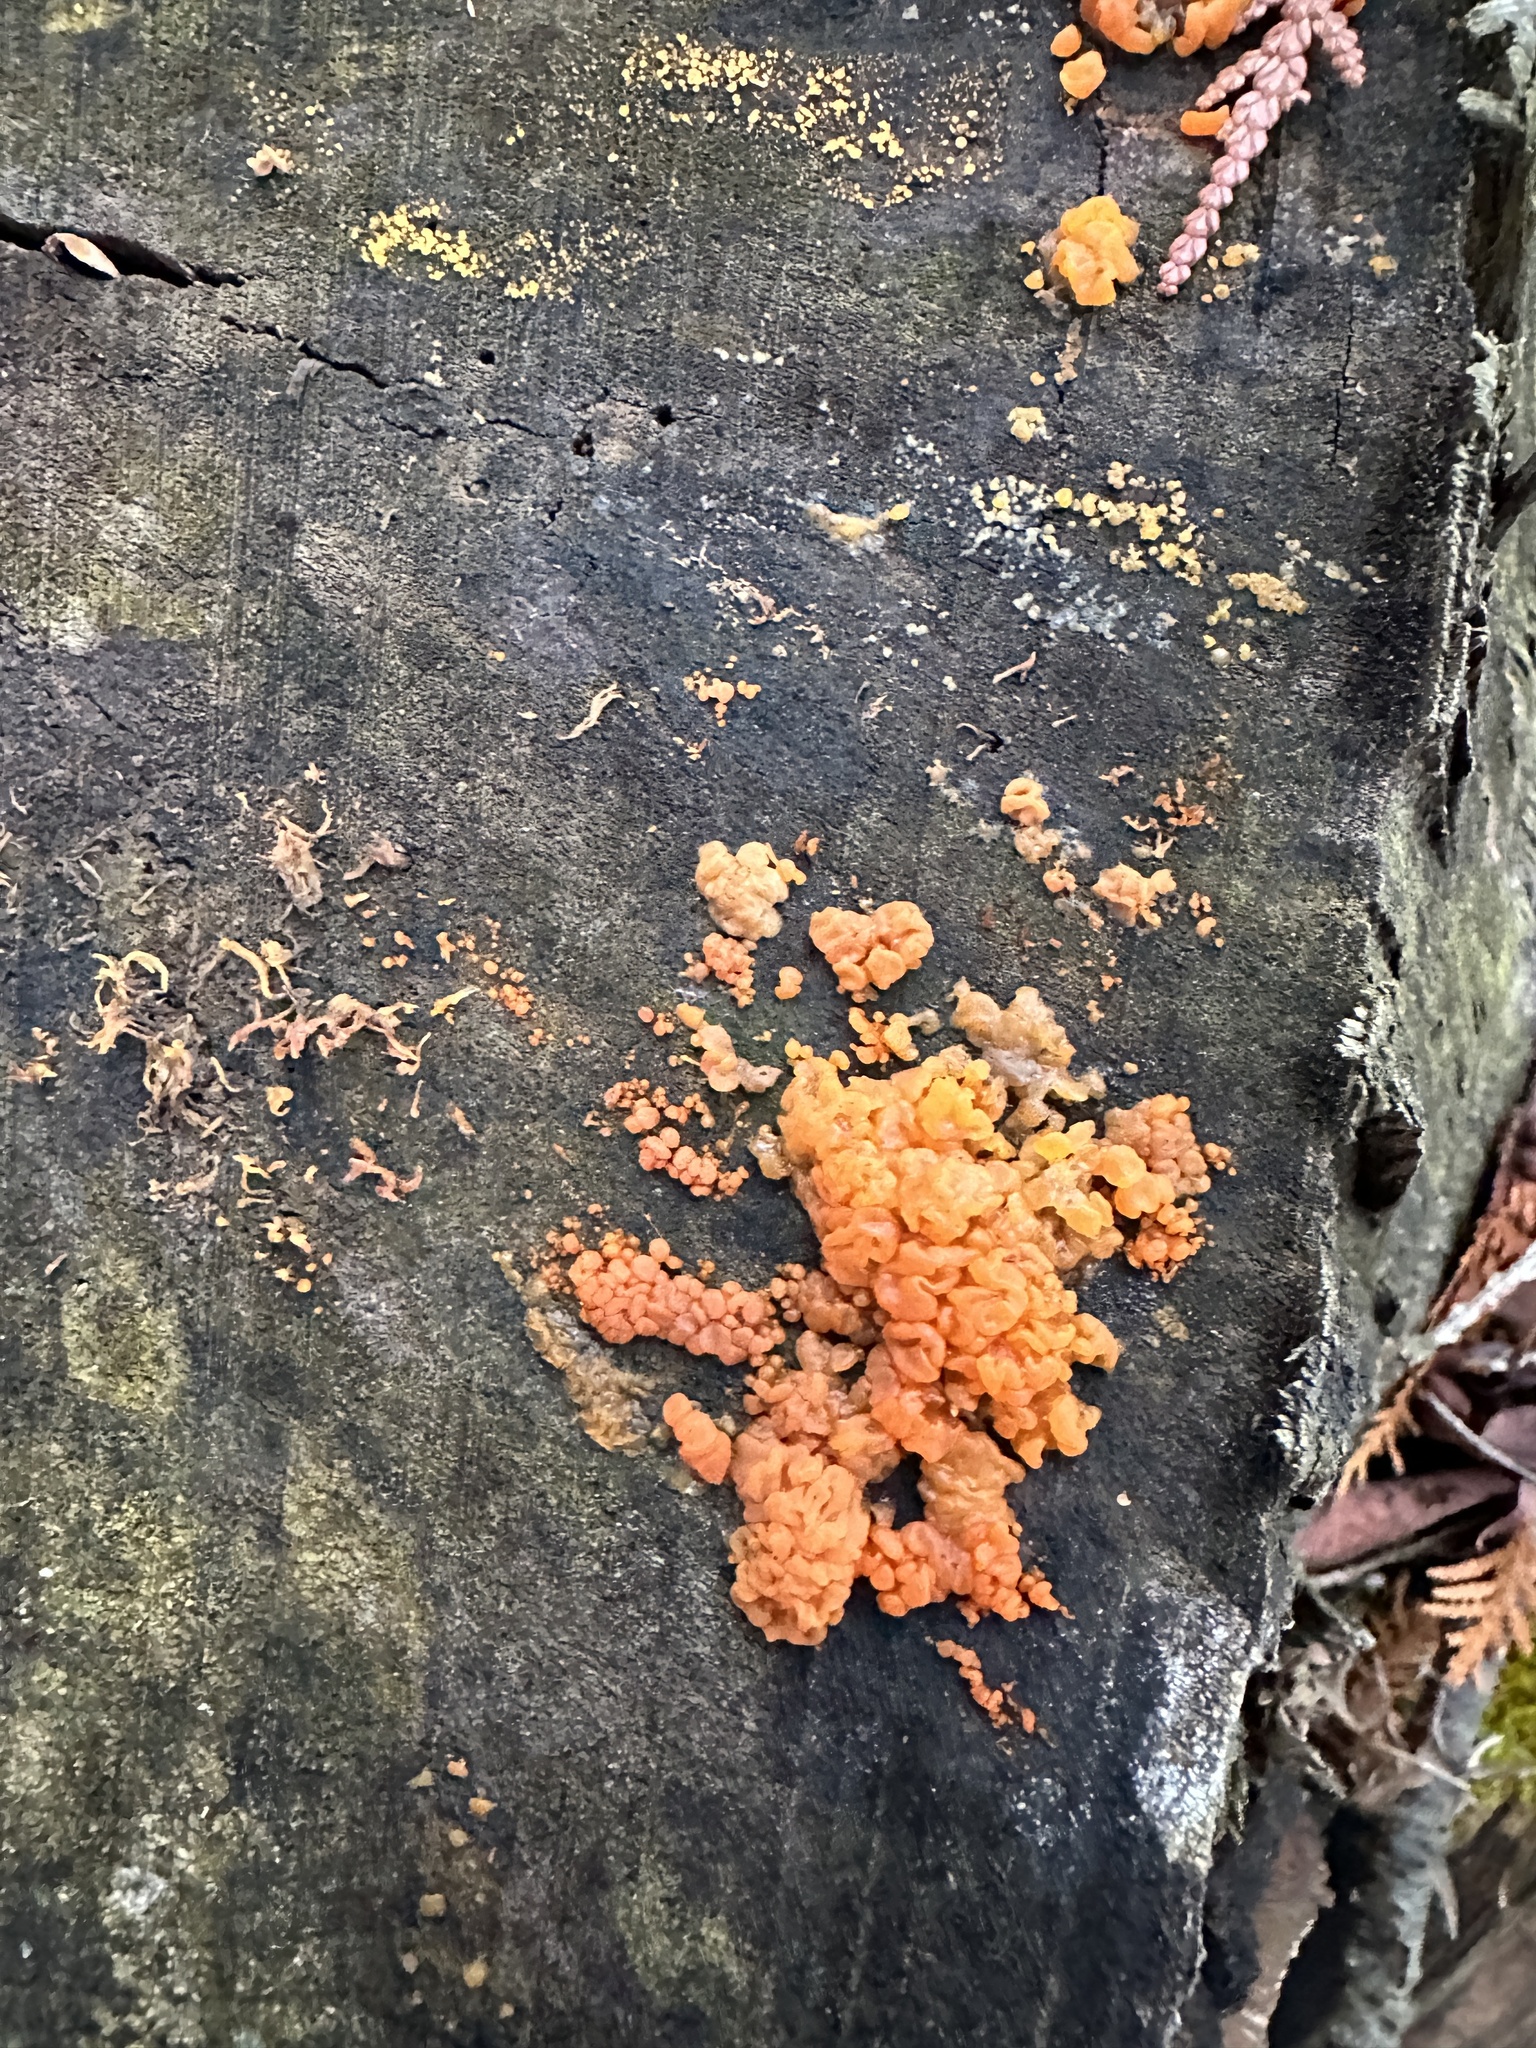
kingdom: Fungi
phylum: Basidiomycota
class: Dacrymycetes
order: Dacrymycetales
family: Dacrymycetaceae
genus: Dacrymyces
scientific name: Dacrymyces chrysospermus
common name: Orange jelly spot
